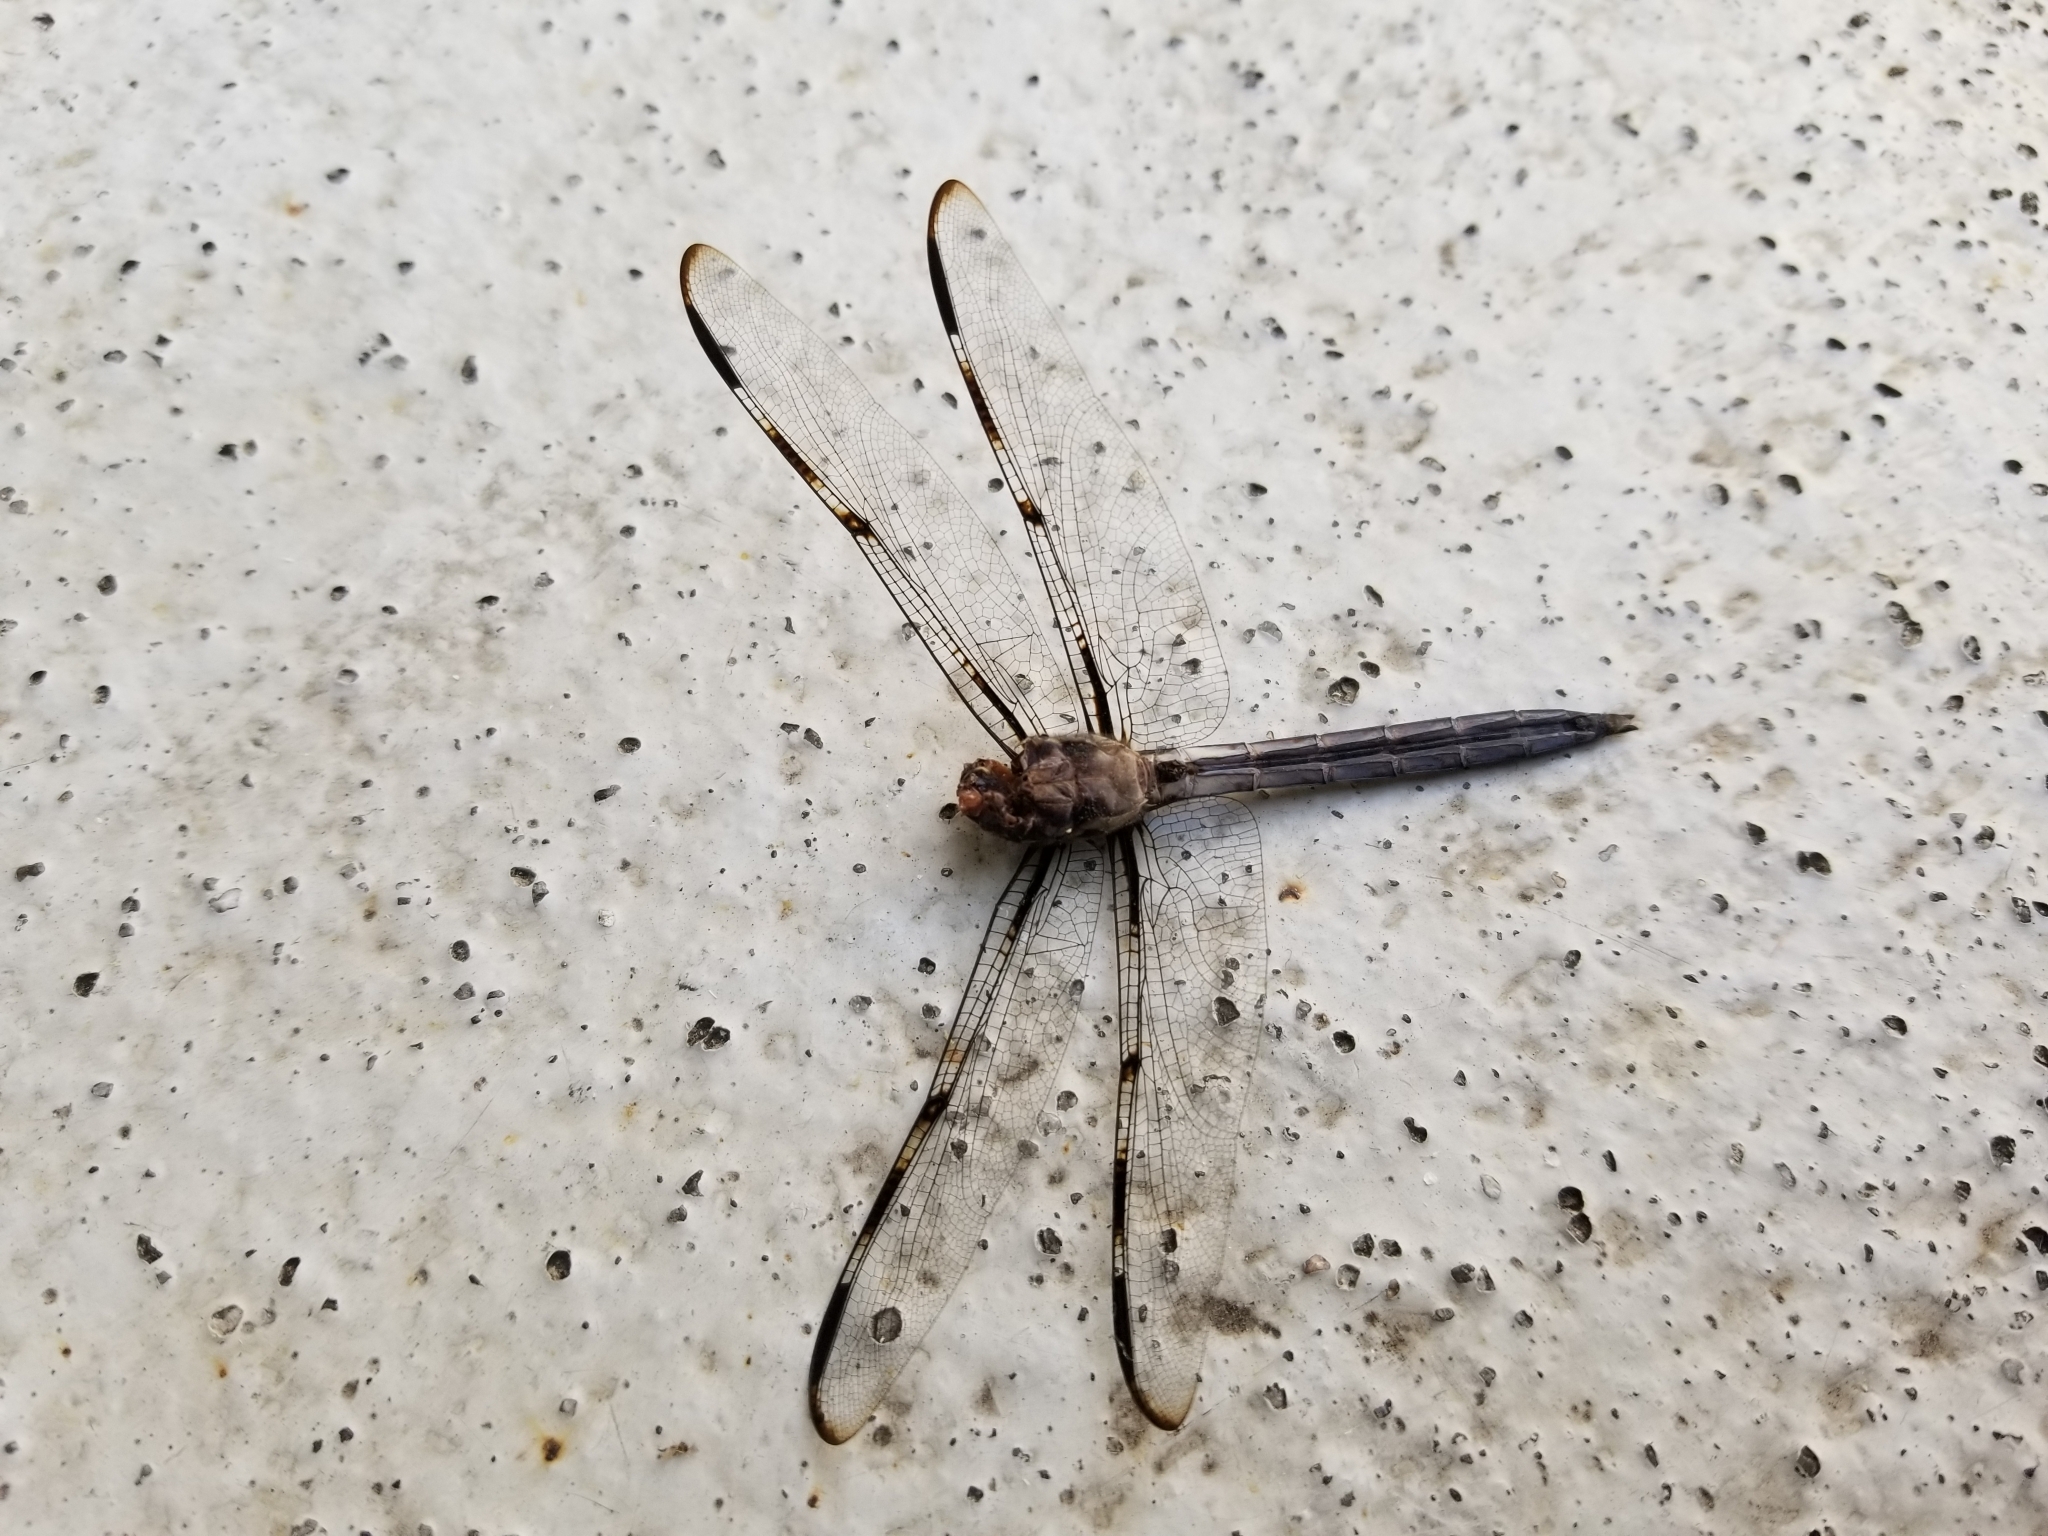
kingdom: Animalia
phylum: Arthropoda
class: Insecta
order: Odonata
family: Libellulidae
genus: Libellula
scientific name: Libellula axilena
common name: Bar-winged skimmer
